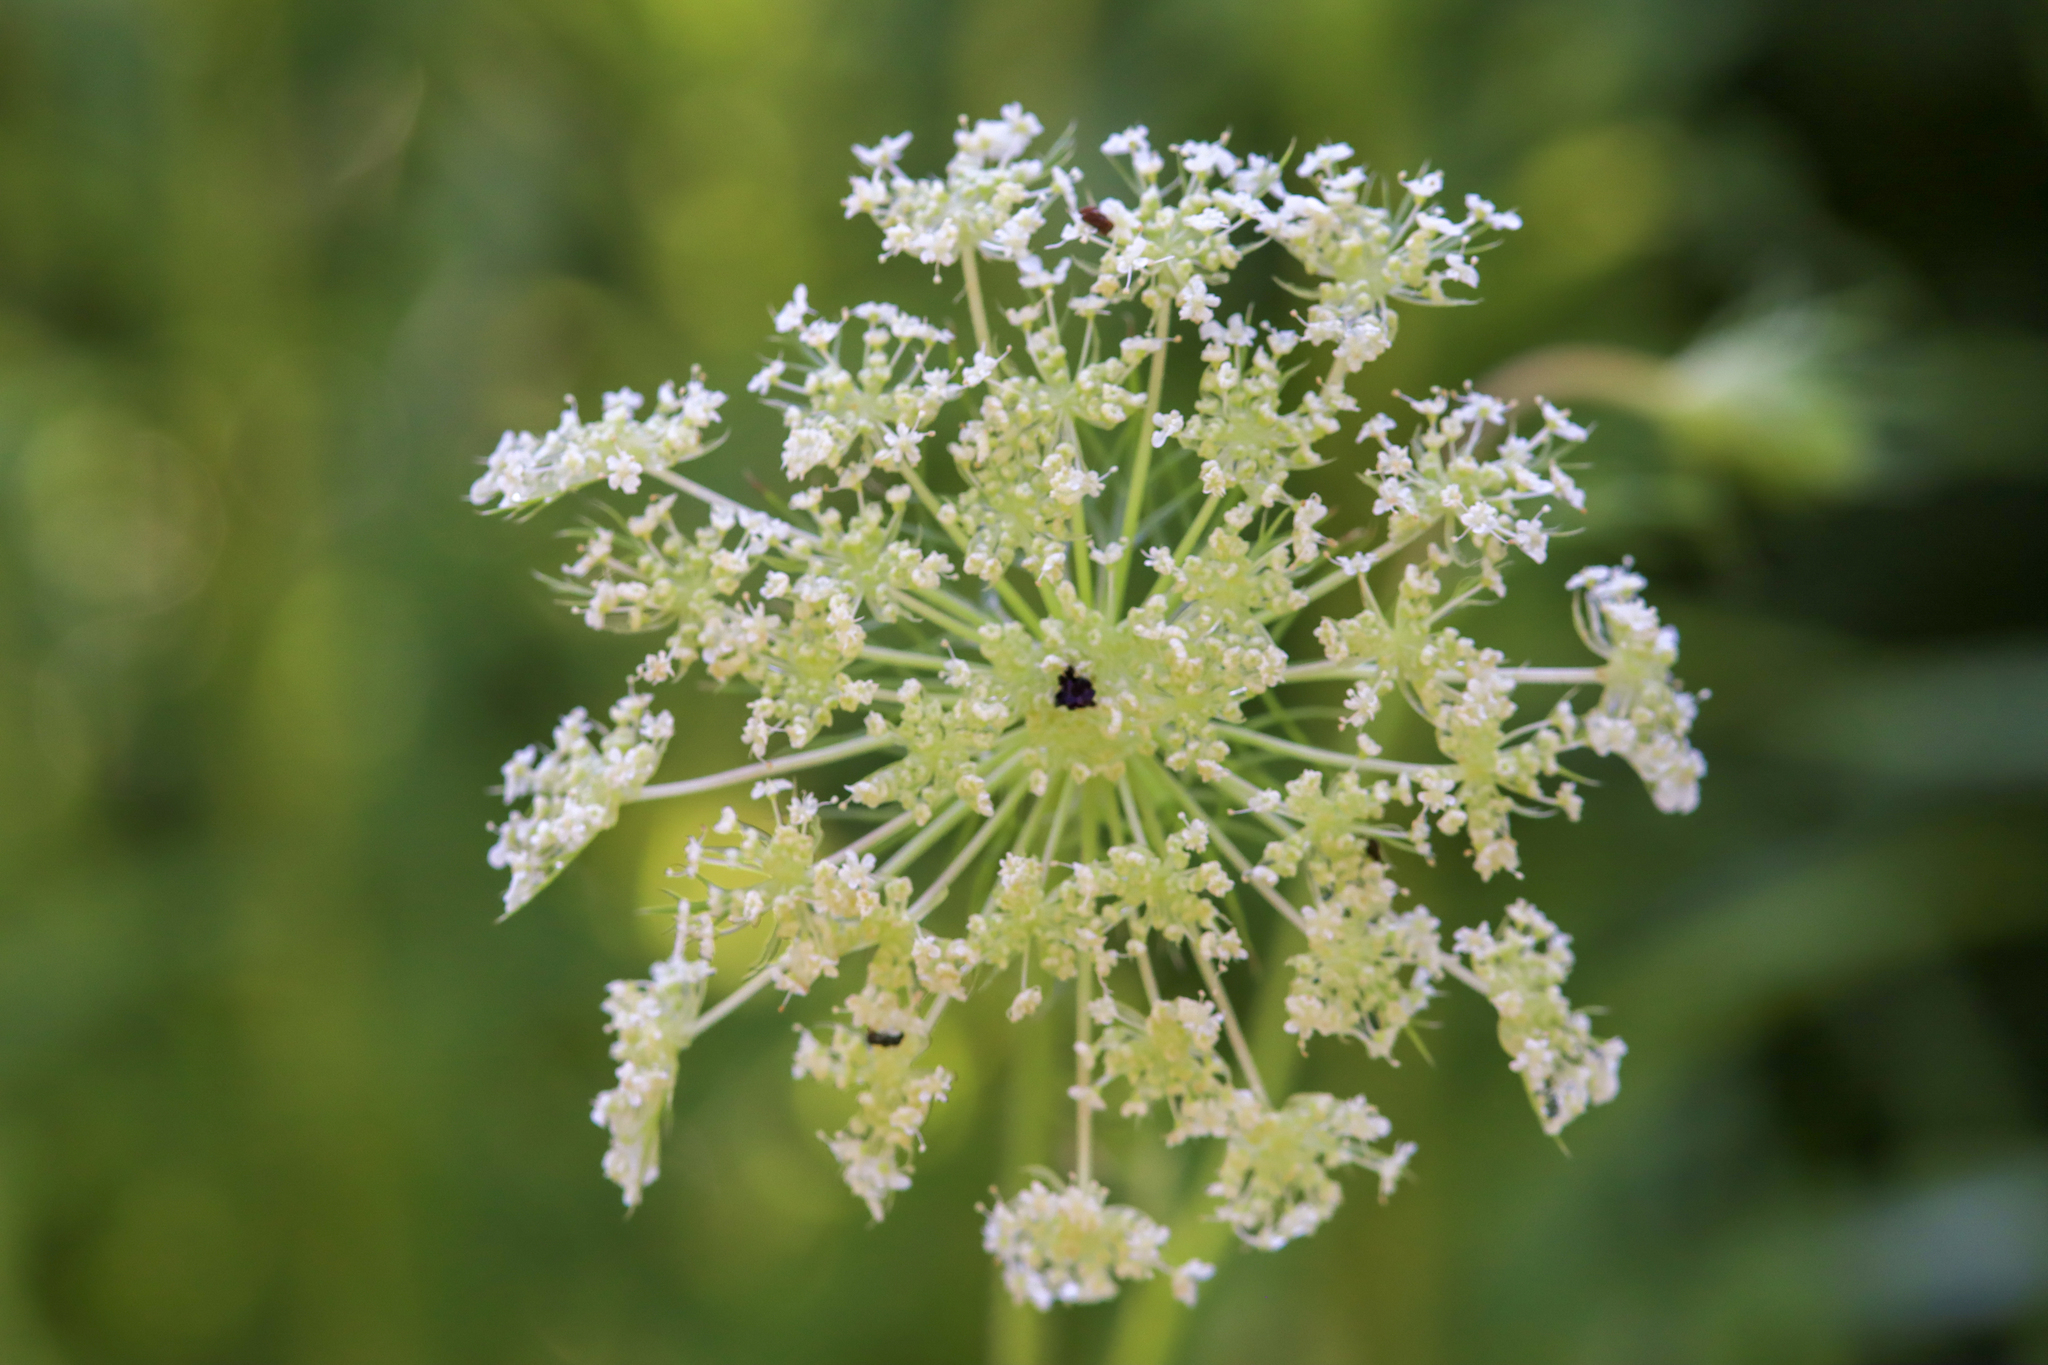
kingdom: Plantae
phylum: Tracheophyta
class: Magnoliopsida
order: Apiales
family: Apiaceae
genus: Daucus
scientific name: Daucus carota
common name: Wild carrot
